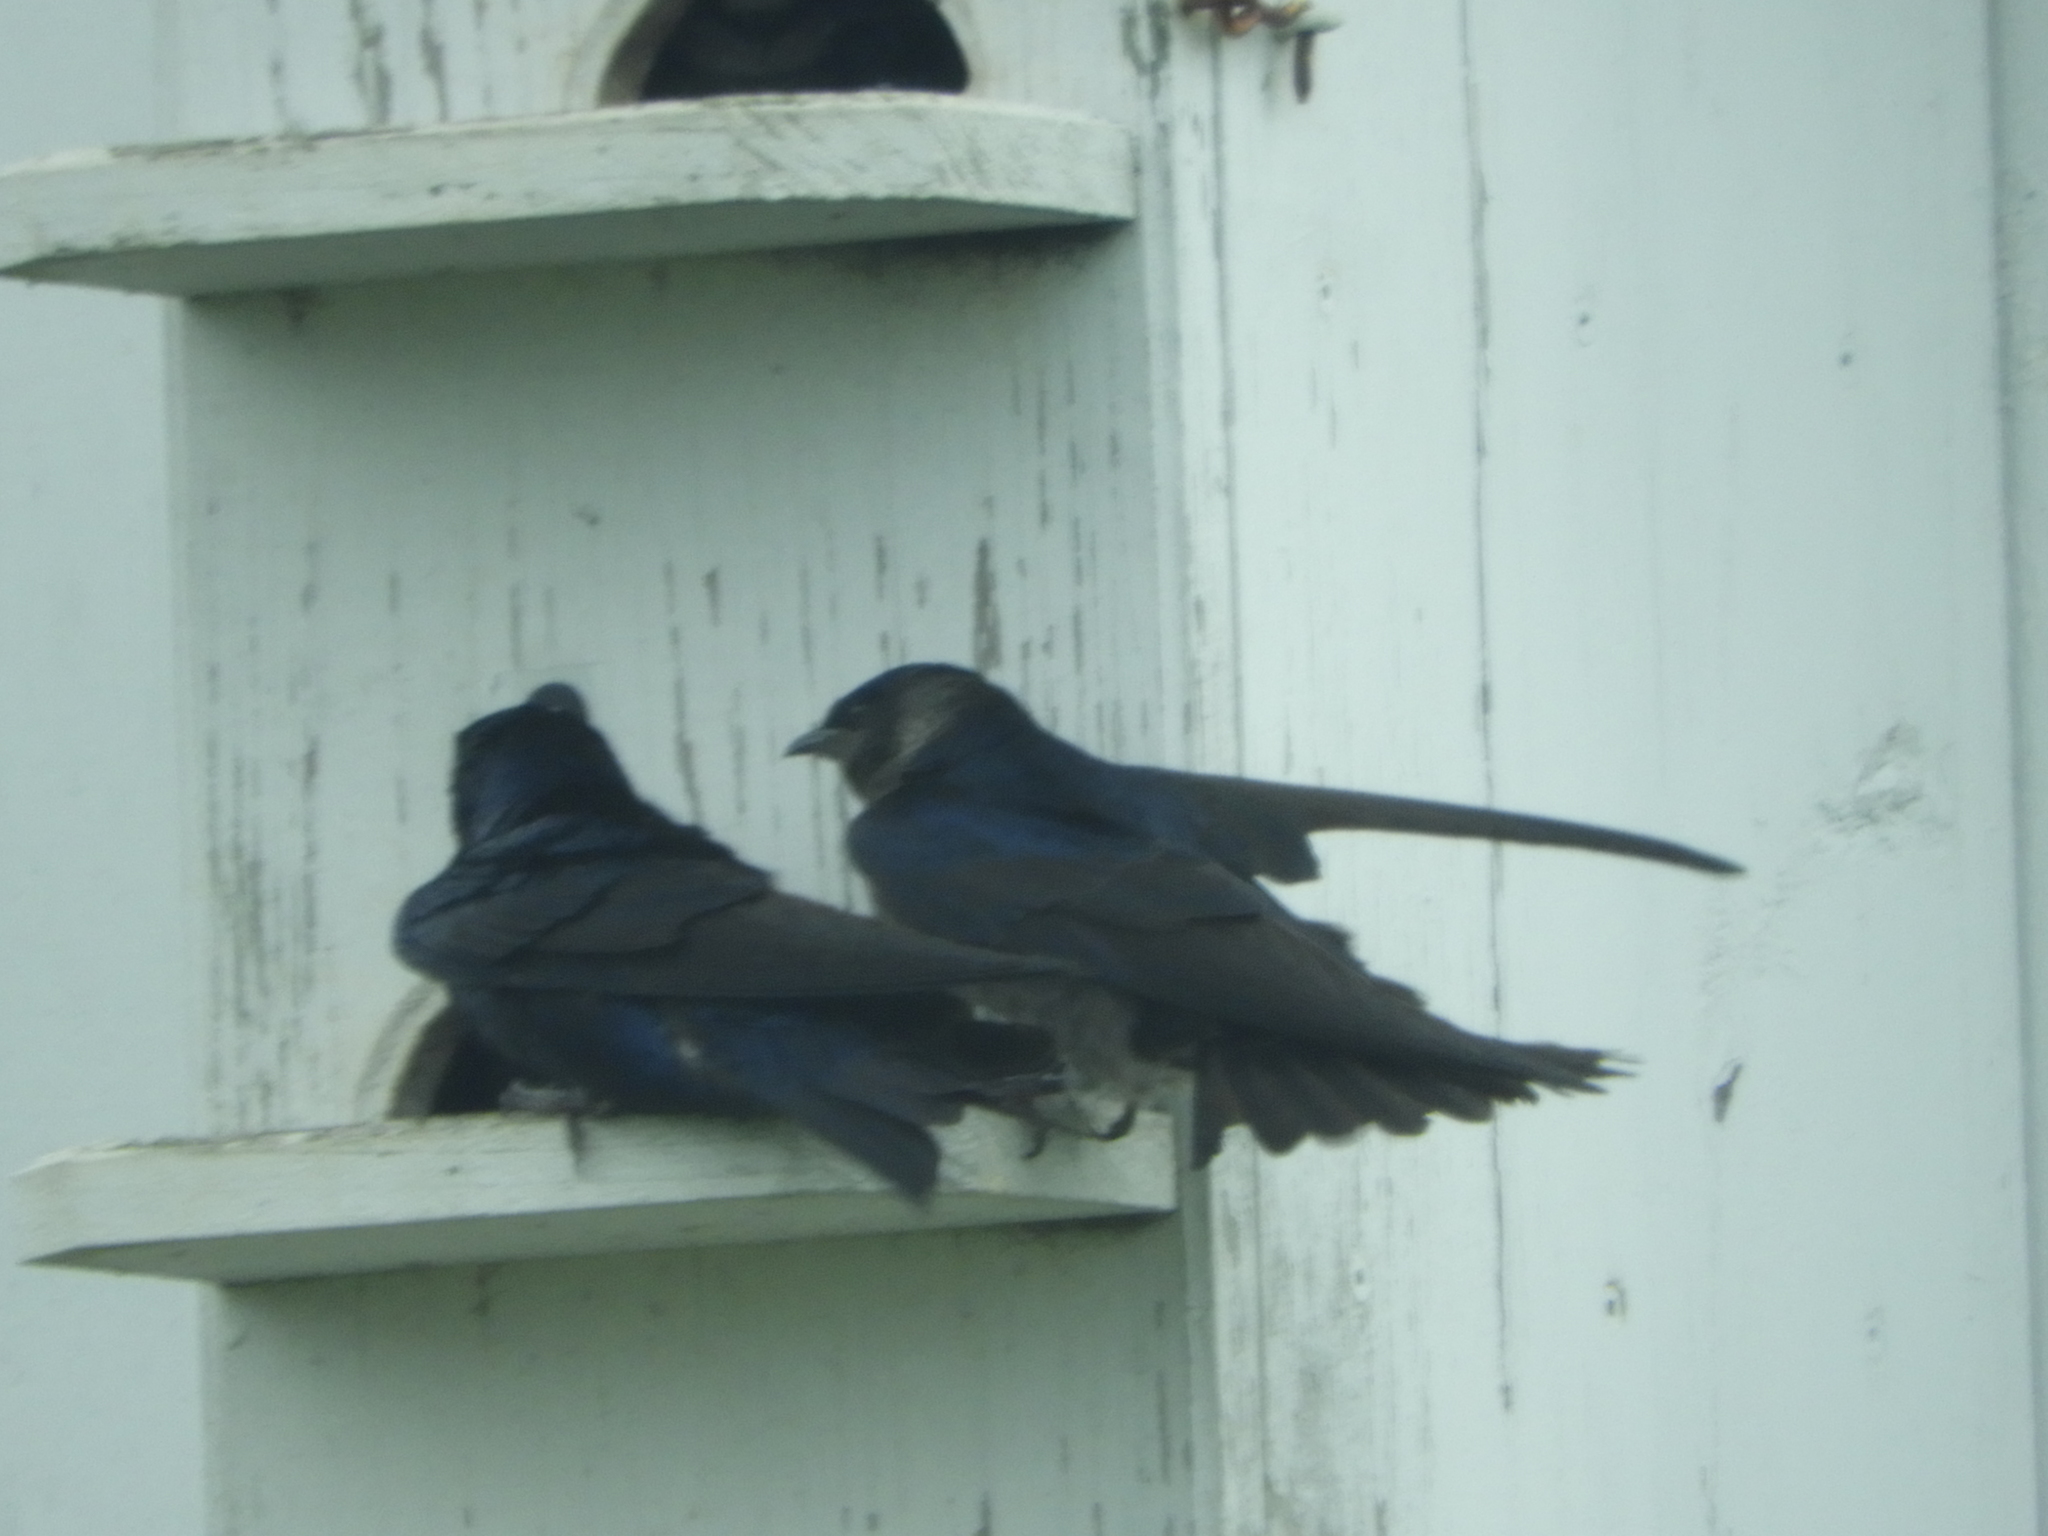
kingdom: Animalia
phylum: Chordata
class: Aves
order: Passeriformes
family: Hirundinidae
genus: Progne
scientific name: Progne subis
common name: Purple martin
